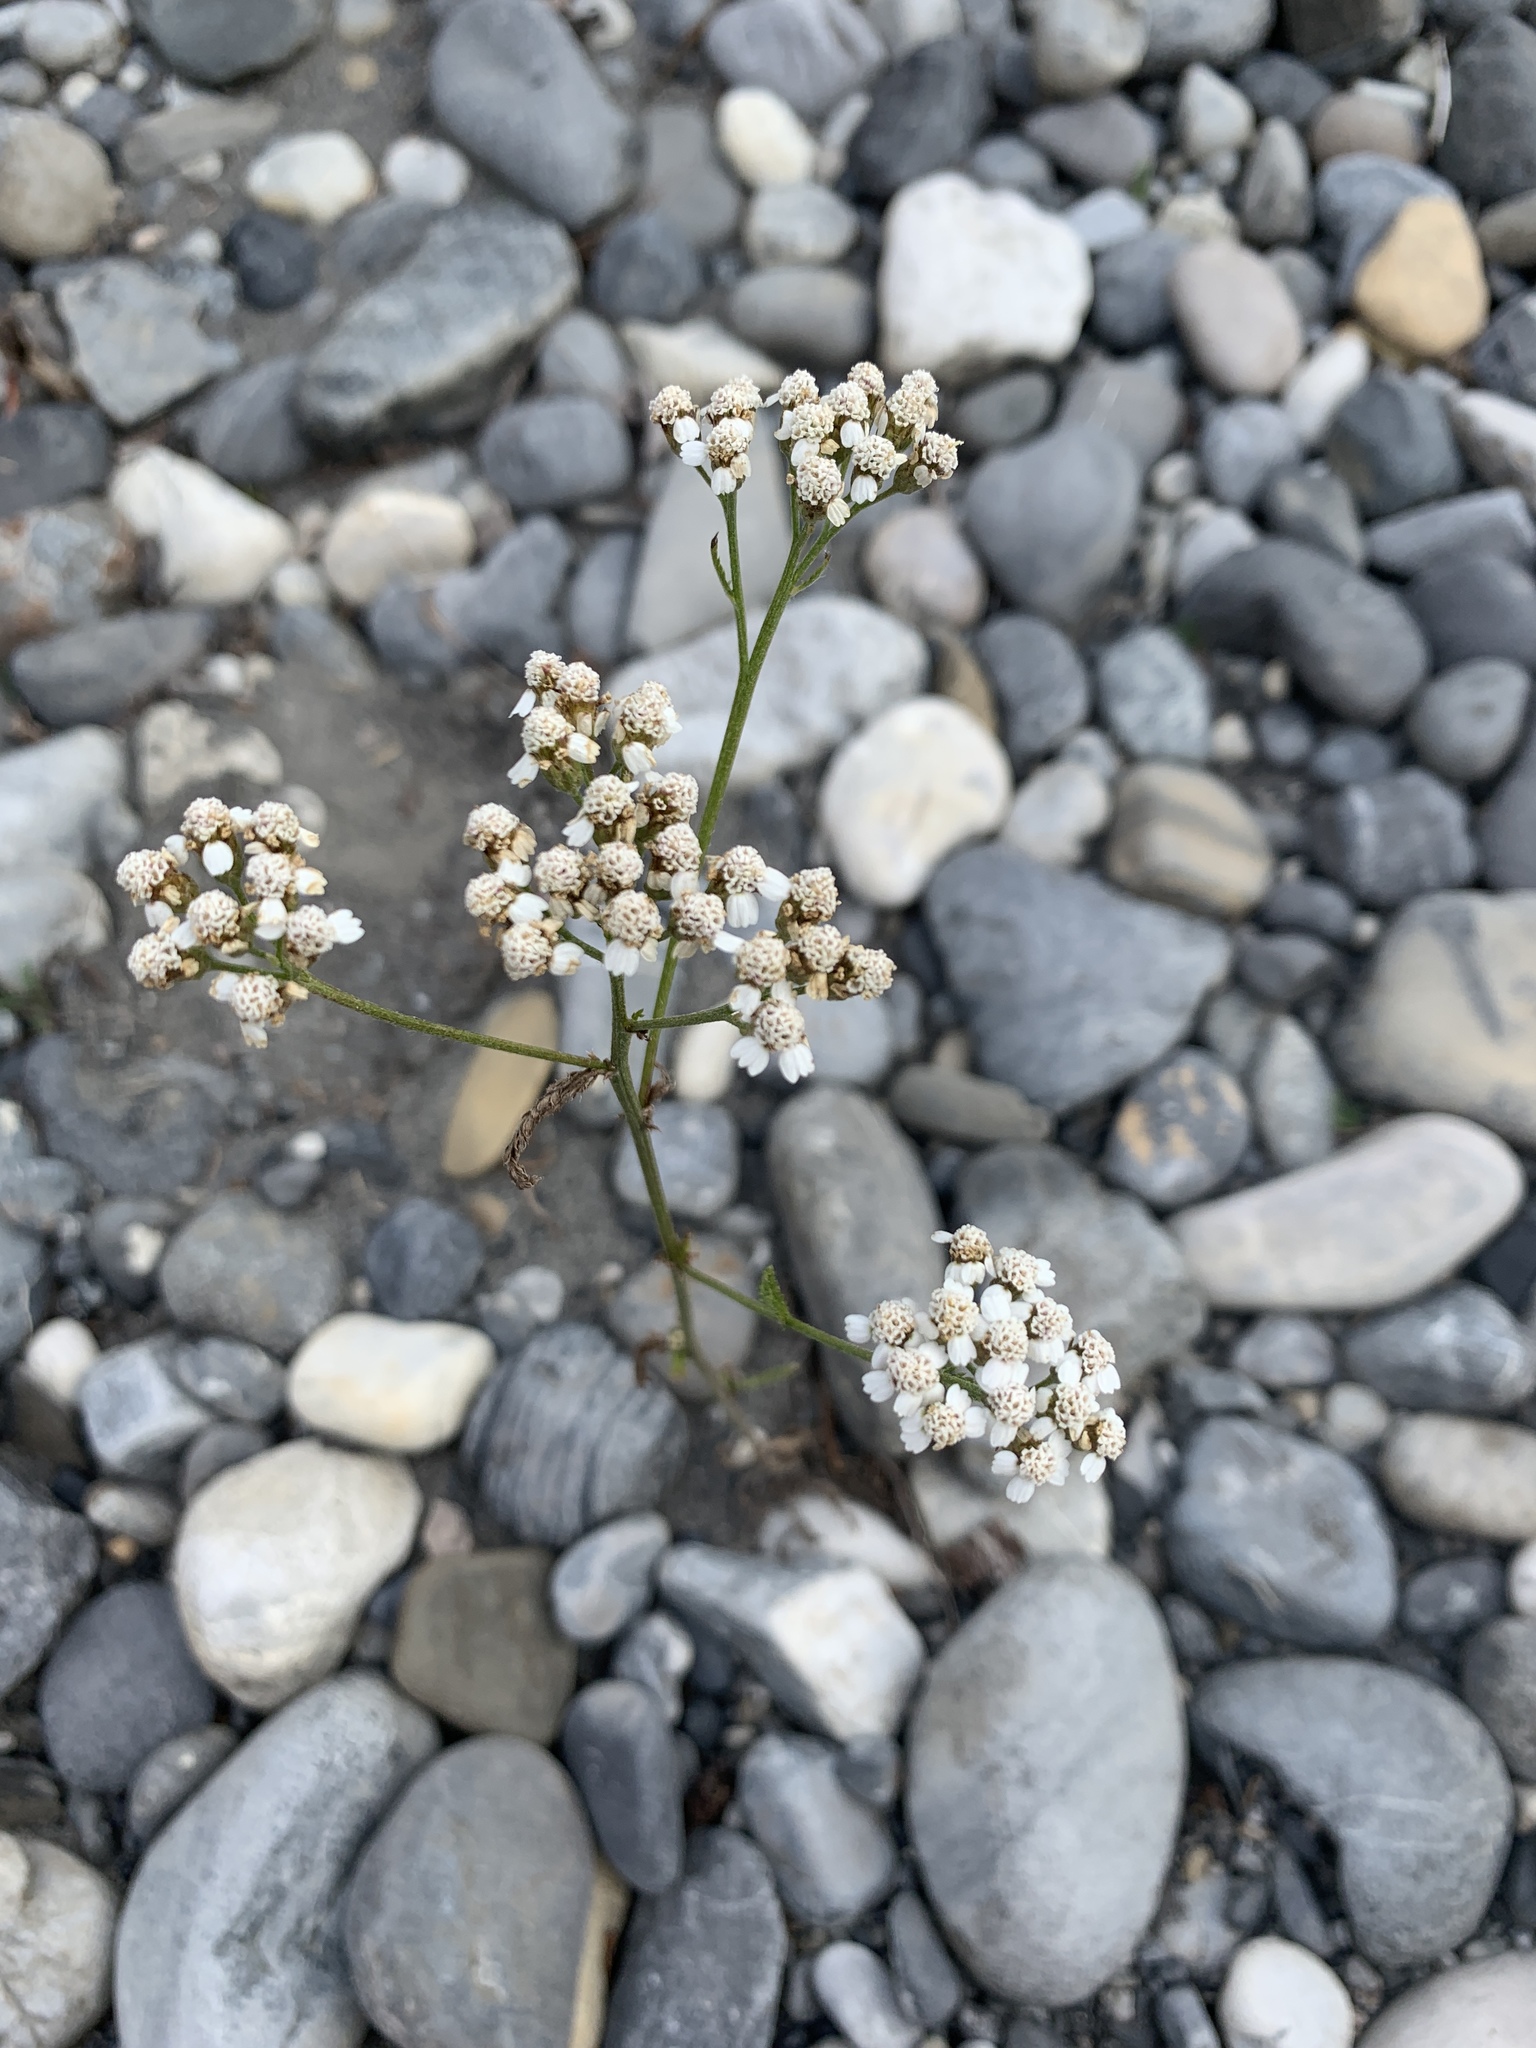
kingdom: Plantae
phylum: Tracheophyta
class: Magnoliopsida
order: Asterales
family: Asteraceae
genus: Achillea
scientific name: Achillea millefolium
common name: Yarrow
